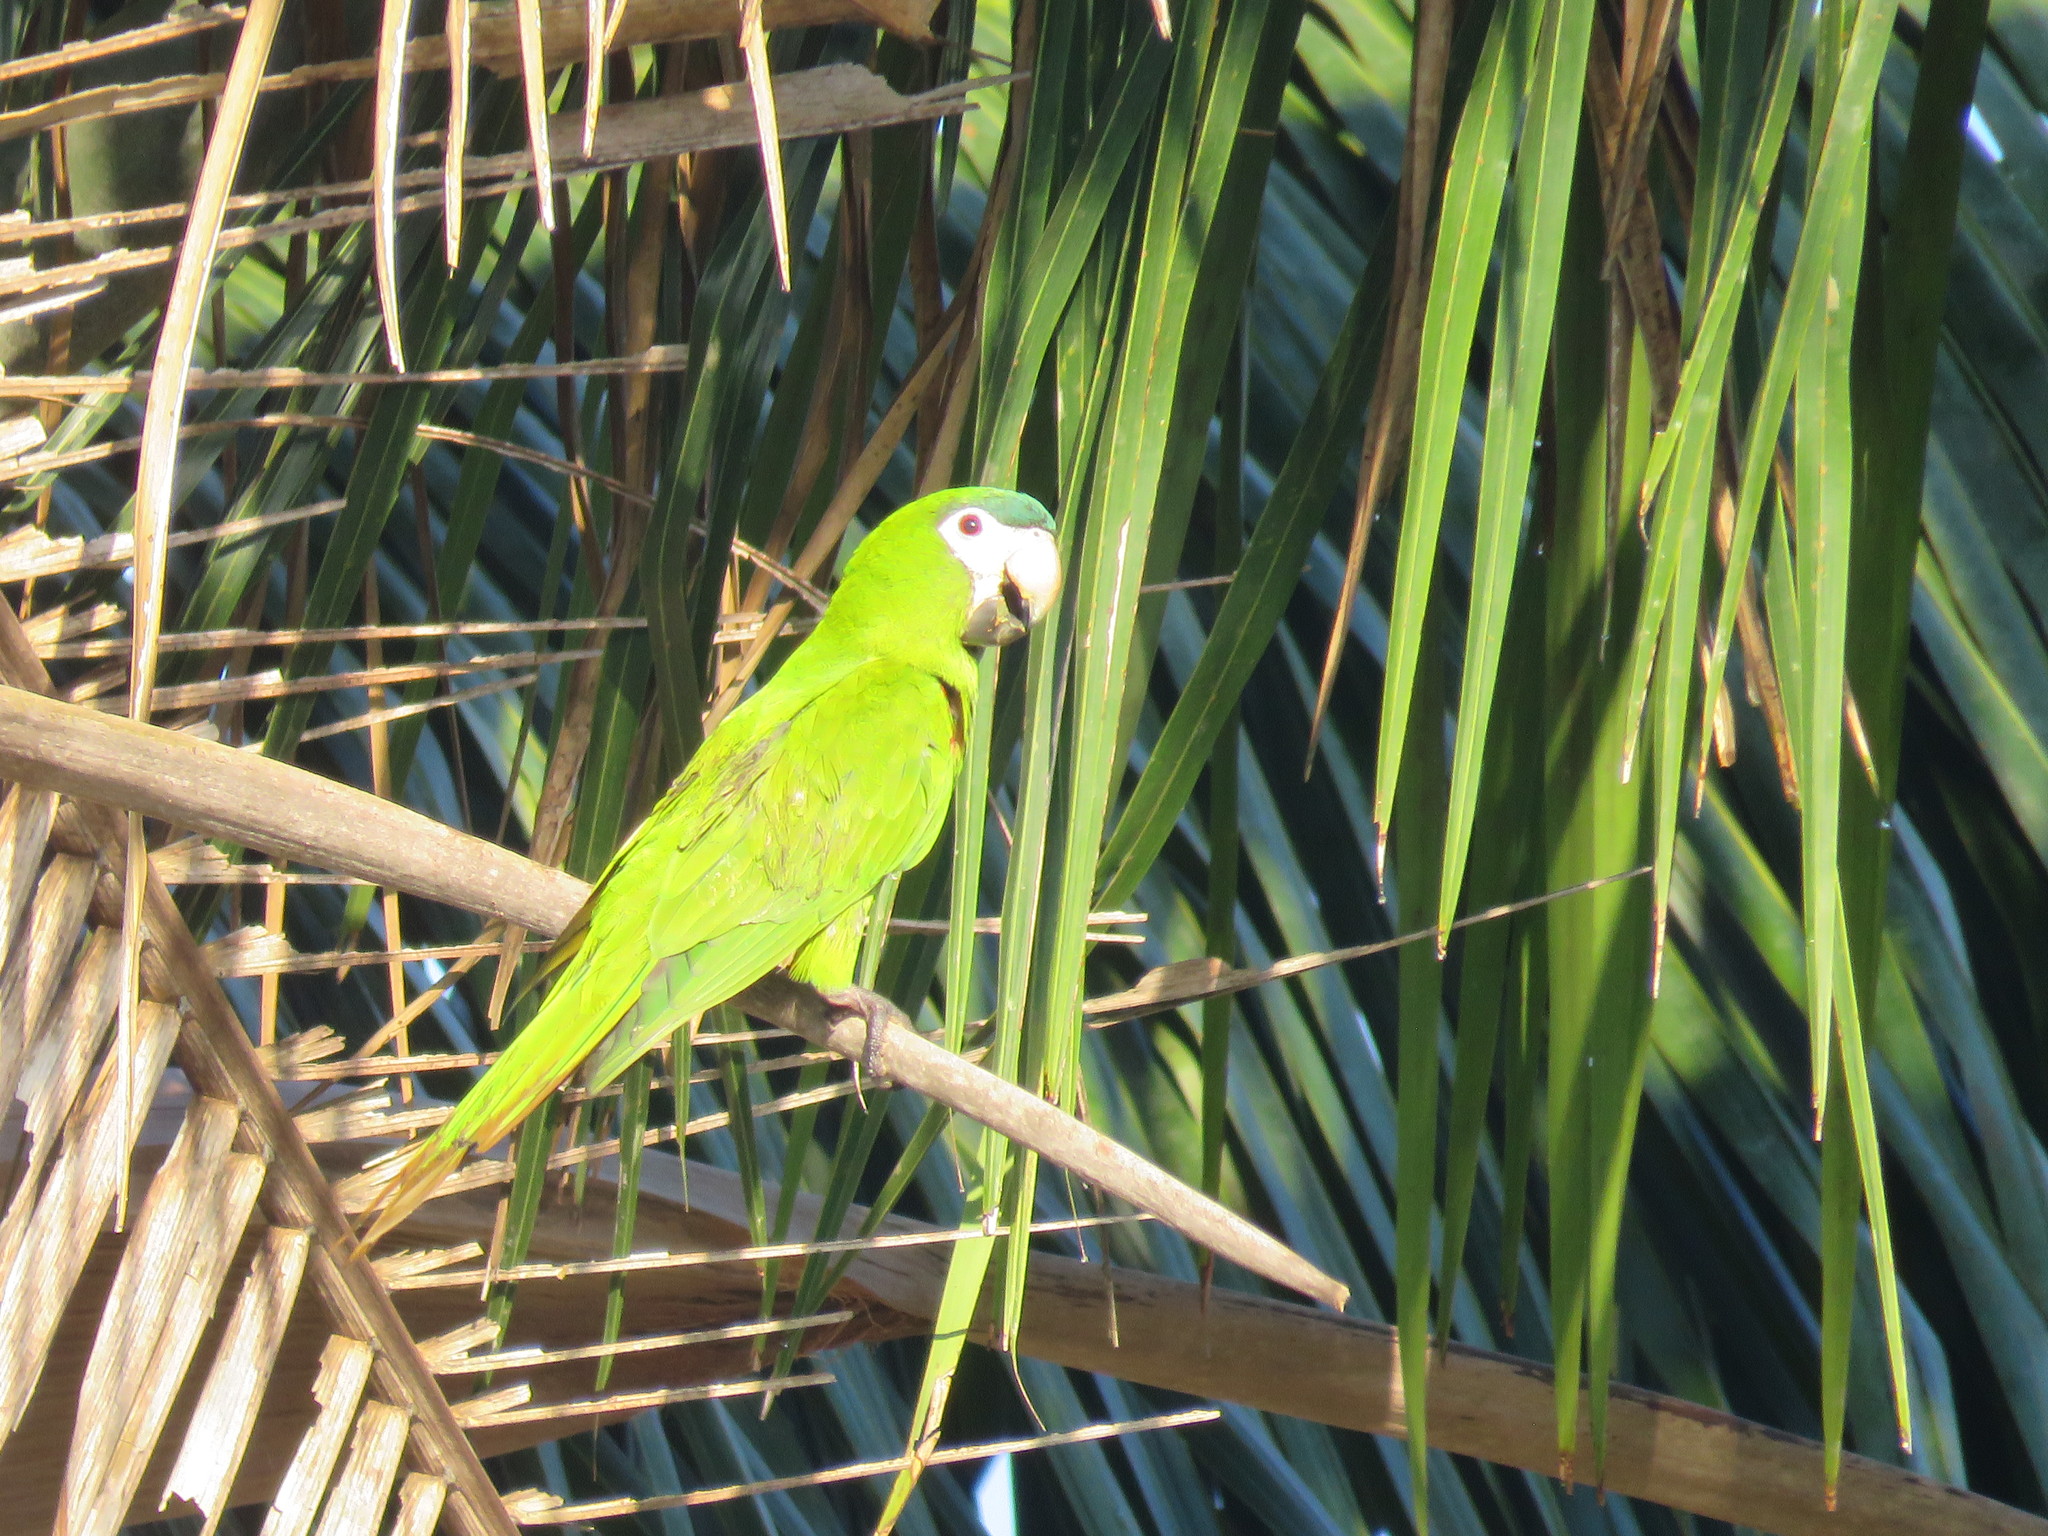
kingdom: Animalia
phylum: Chordata
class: Aves
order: Psittaciformes
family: Psittacidae
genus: Diopsittaca
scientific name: Diopsittaca nobilis
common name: Red-shouldered macaw
